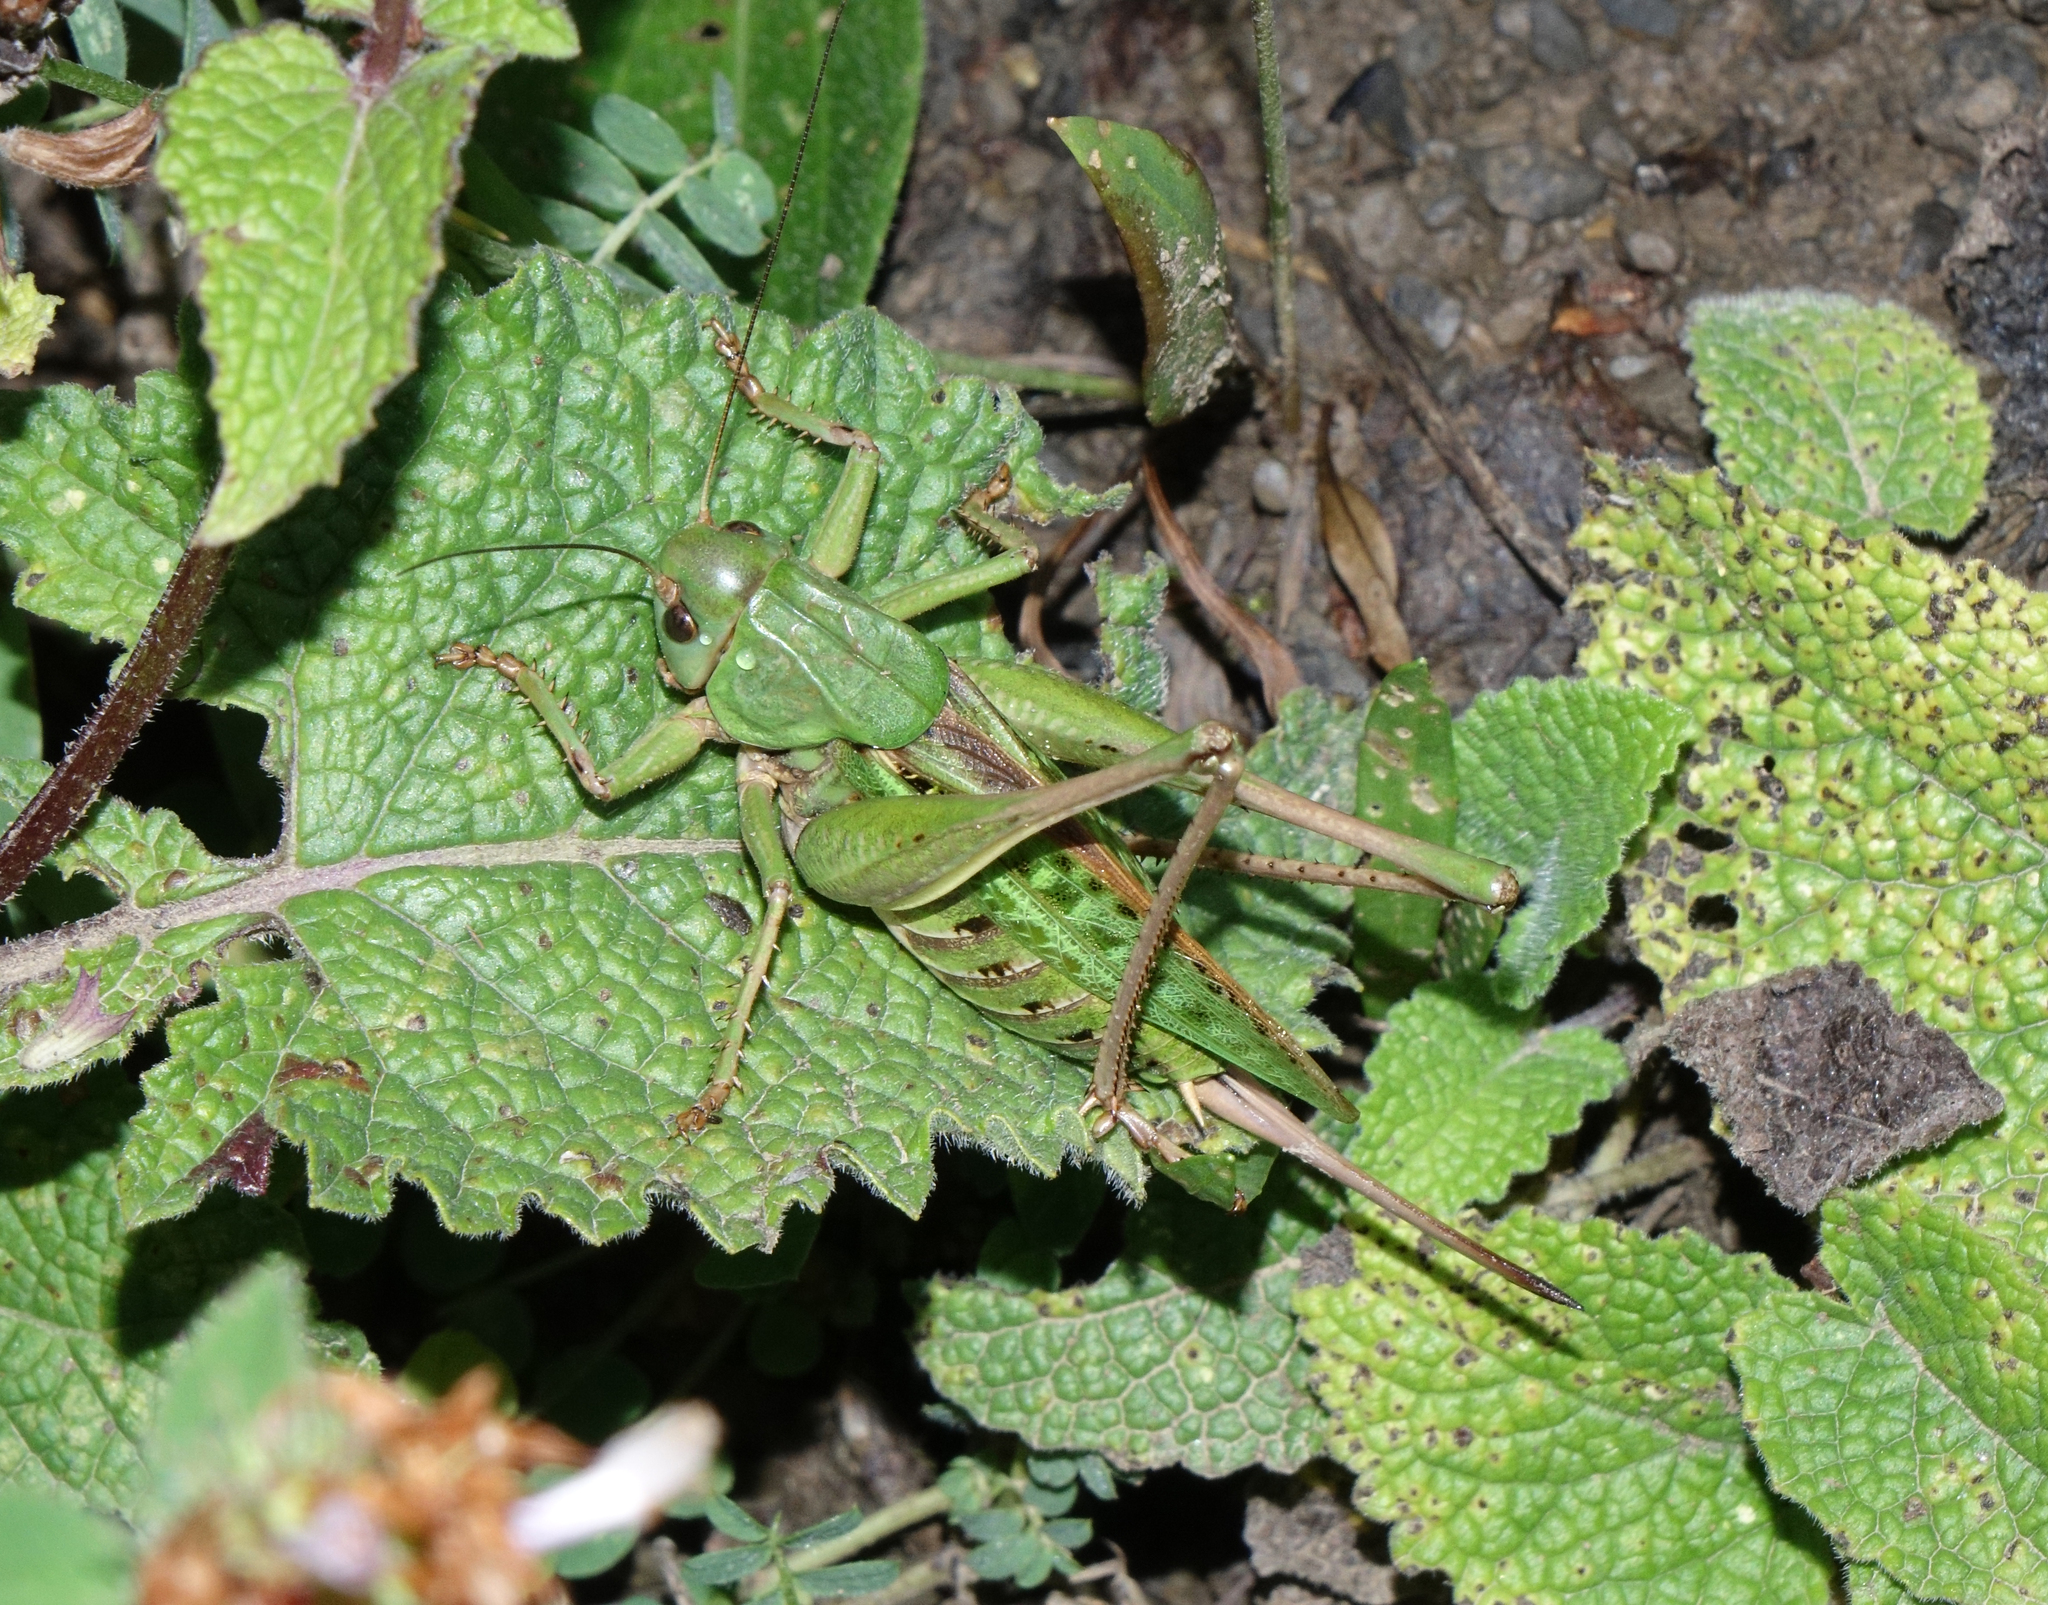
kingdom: Animalia
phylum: Arthropoda
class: Insecta
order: Orthoptera
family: Tettigoniidae
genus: Decticus
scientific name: Decticus verrucivorus
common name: Wart-biter
